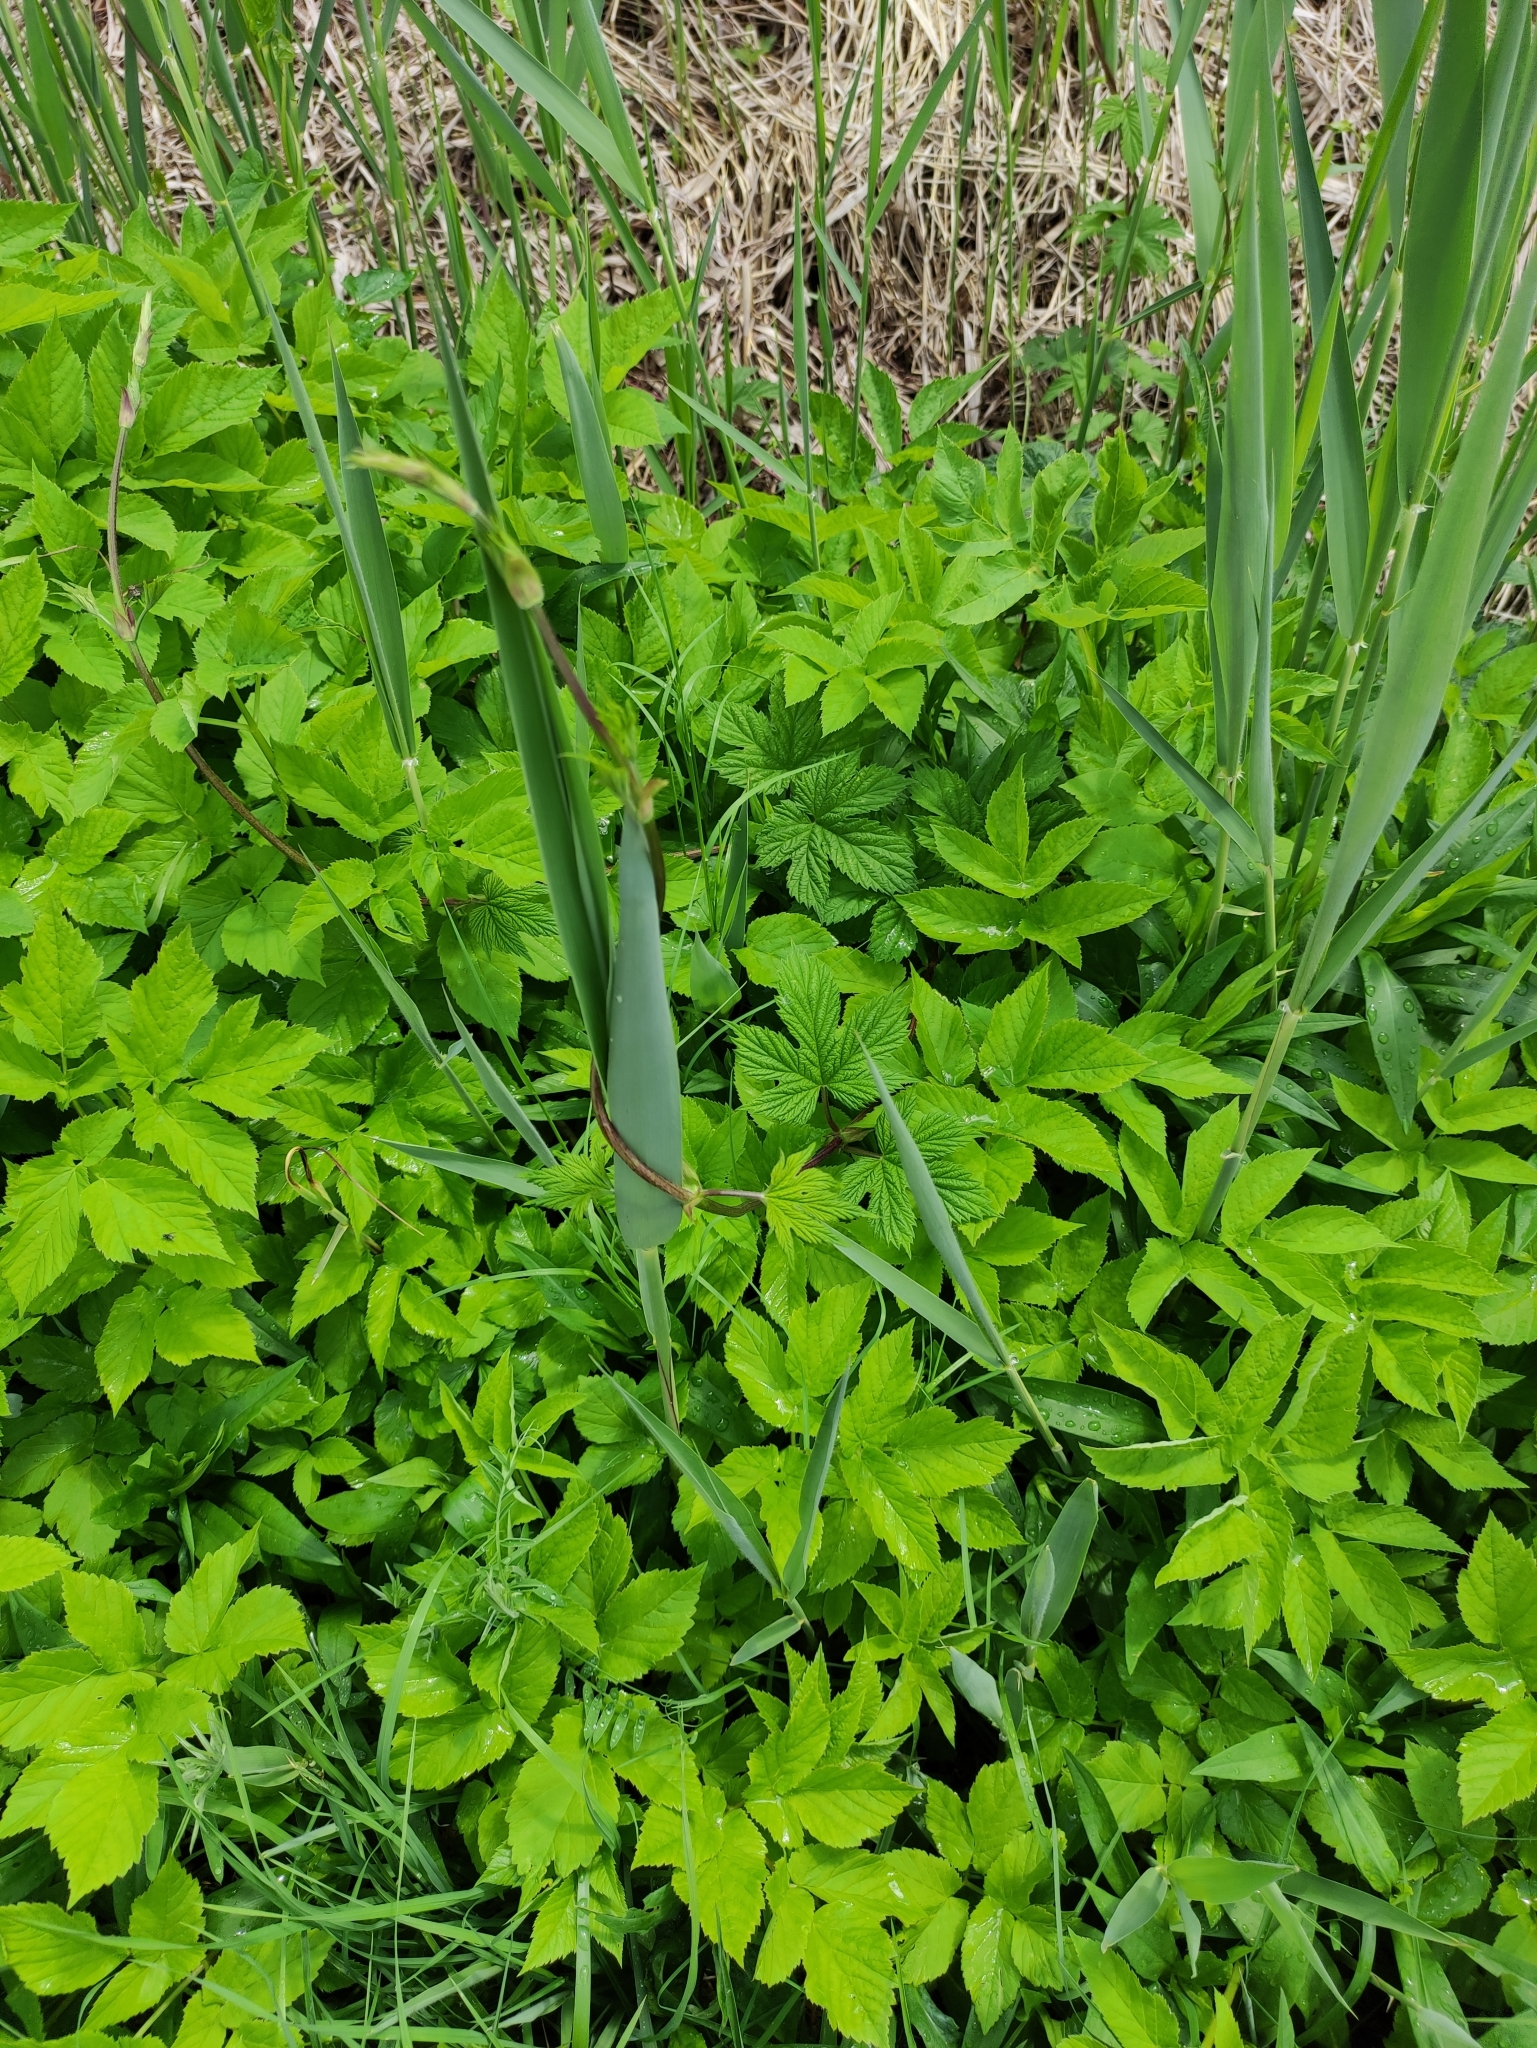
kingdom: Plantae
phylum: Tracheophyta
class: Magnoliopsida
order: Rosales
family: Cannabaceae
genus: Humulus
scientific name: Humulus lupulus
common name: Hop
